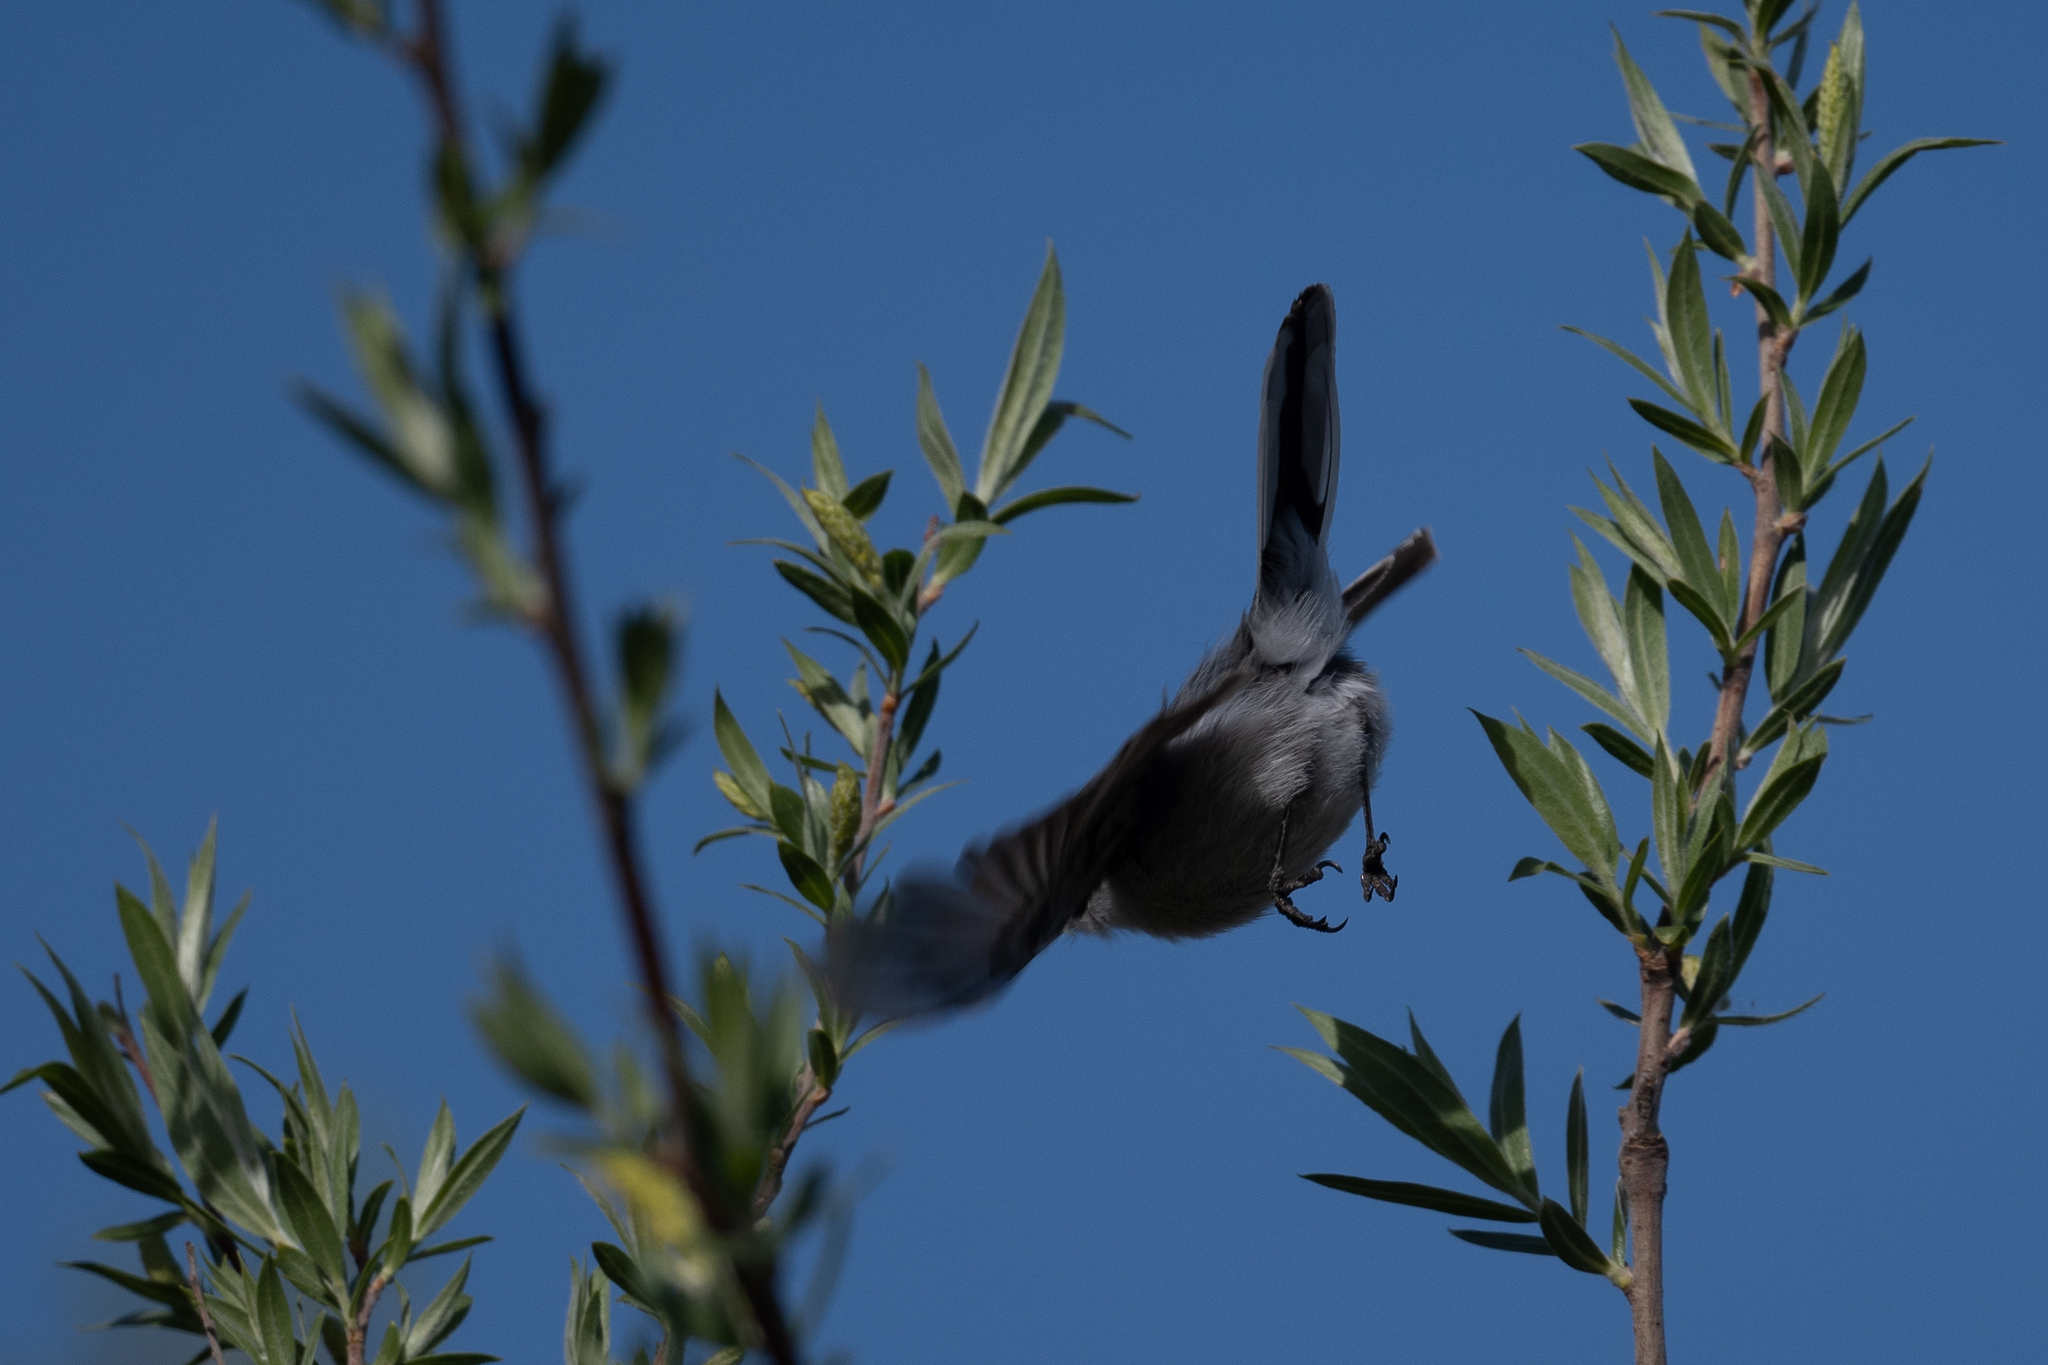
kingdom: Animalia
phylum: Chordata
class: Aves
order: Passeriformes
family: Polioptilidae
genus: Polioptila
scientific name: Polioptila caerulea
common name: Blue-gray gnatcatcher
